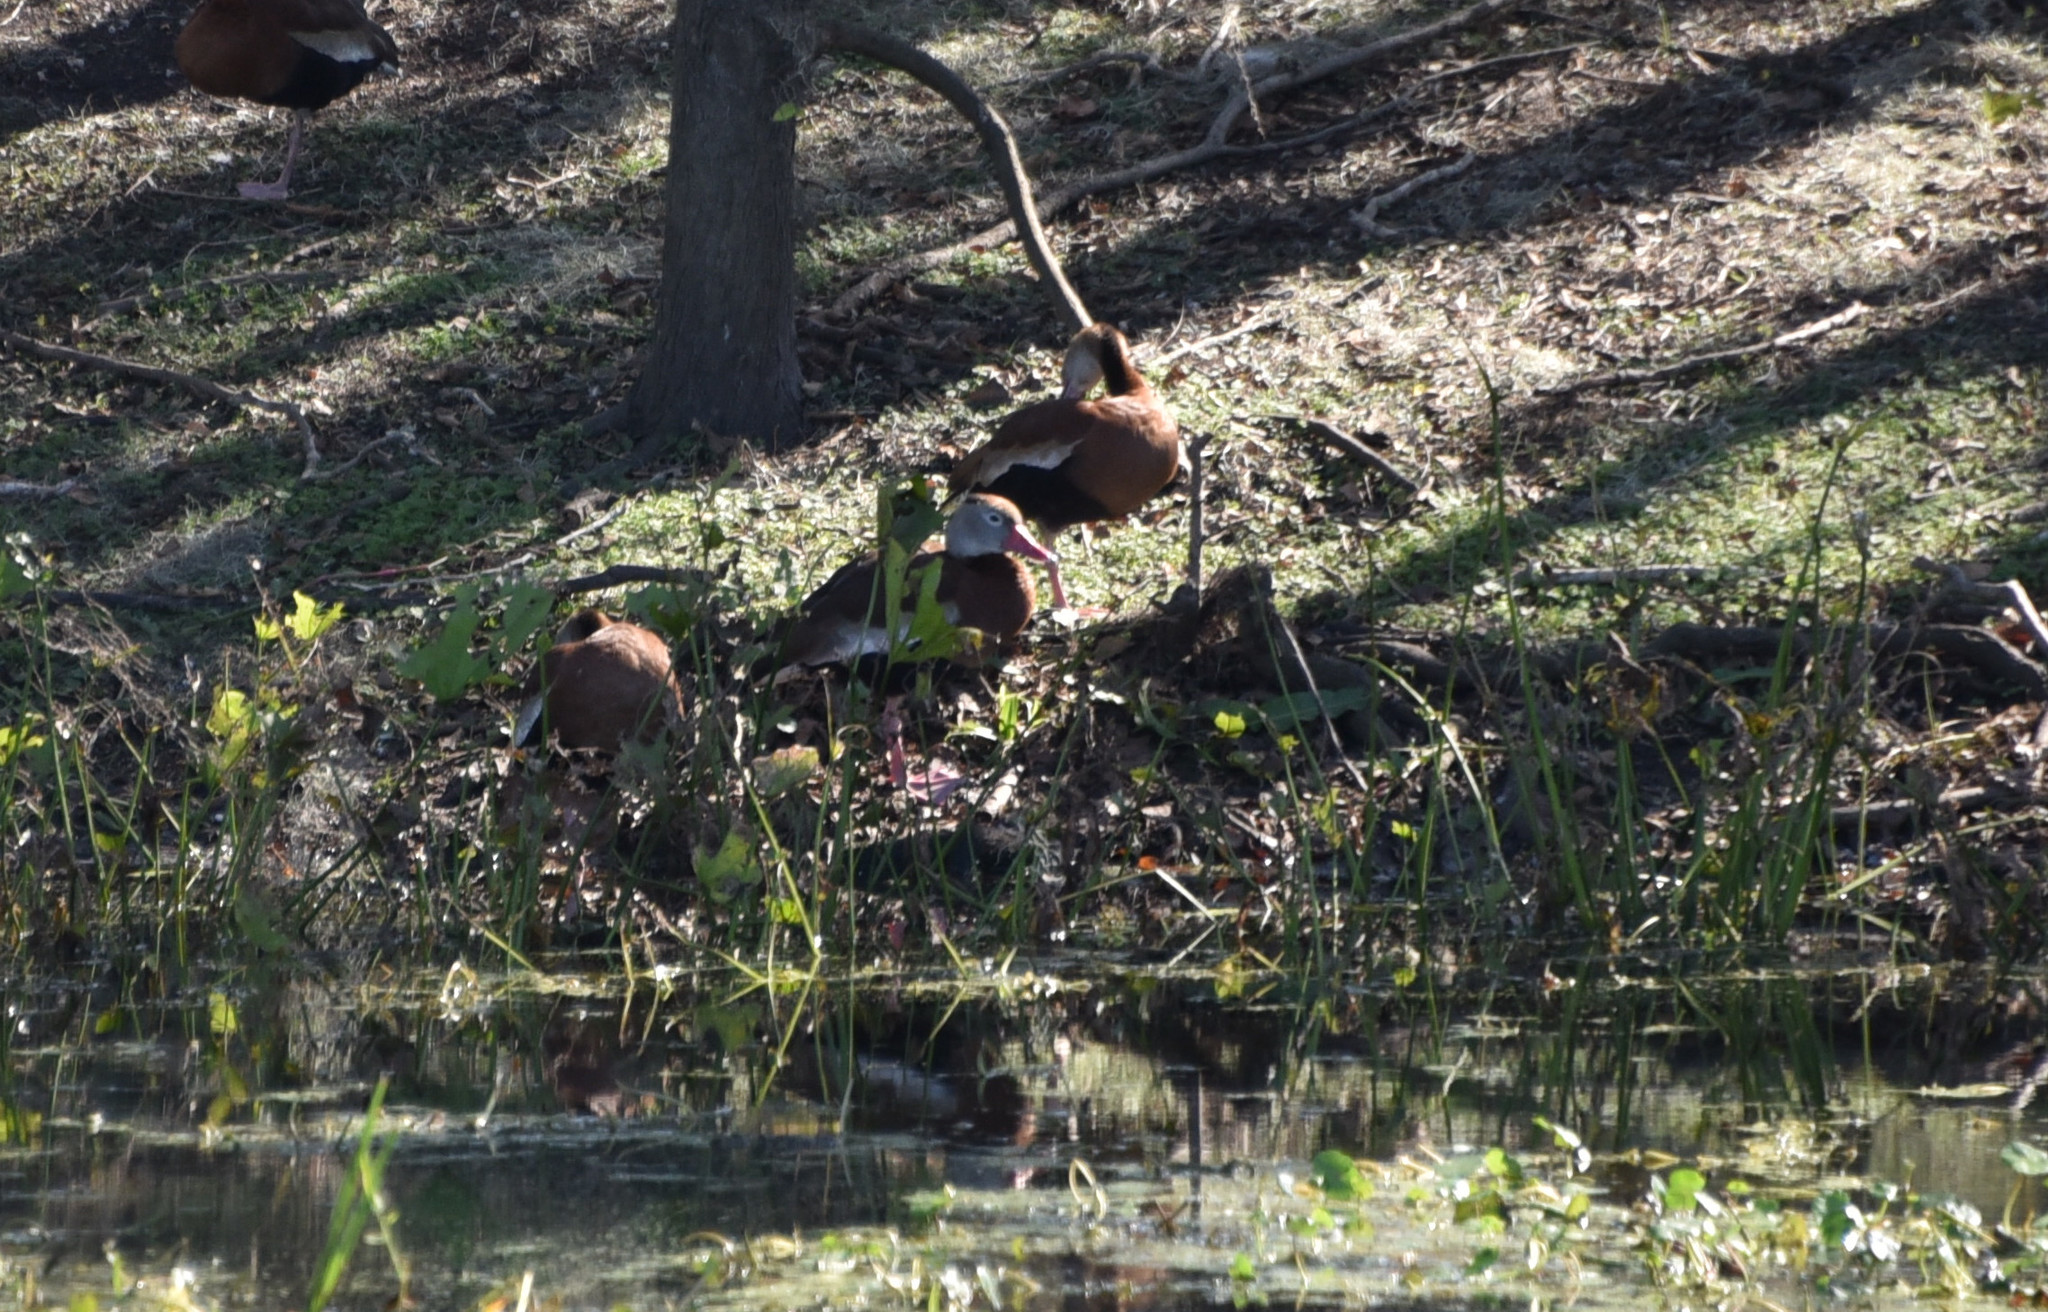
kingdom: Animalia
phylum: Chordata
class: Aves
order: Anseriformes
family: Anatidae
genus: Dendrocygna
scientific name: Dendrocygna autumnalis
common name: Black-bellied whistling duck
